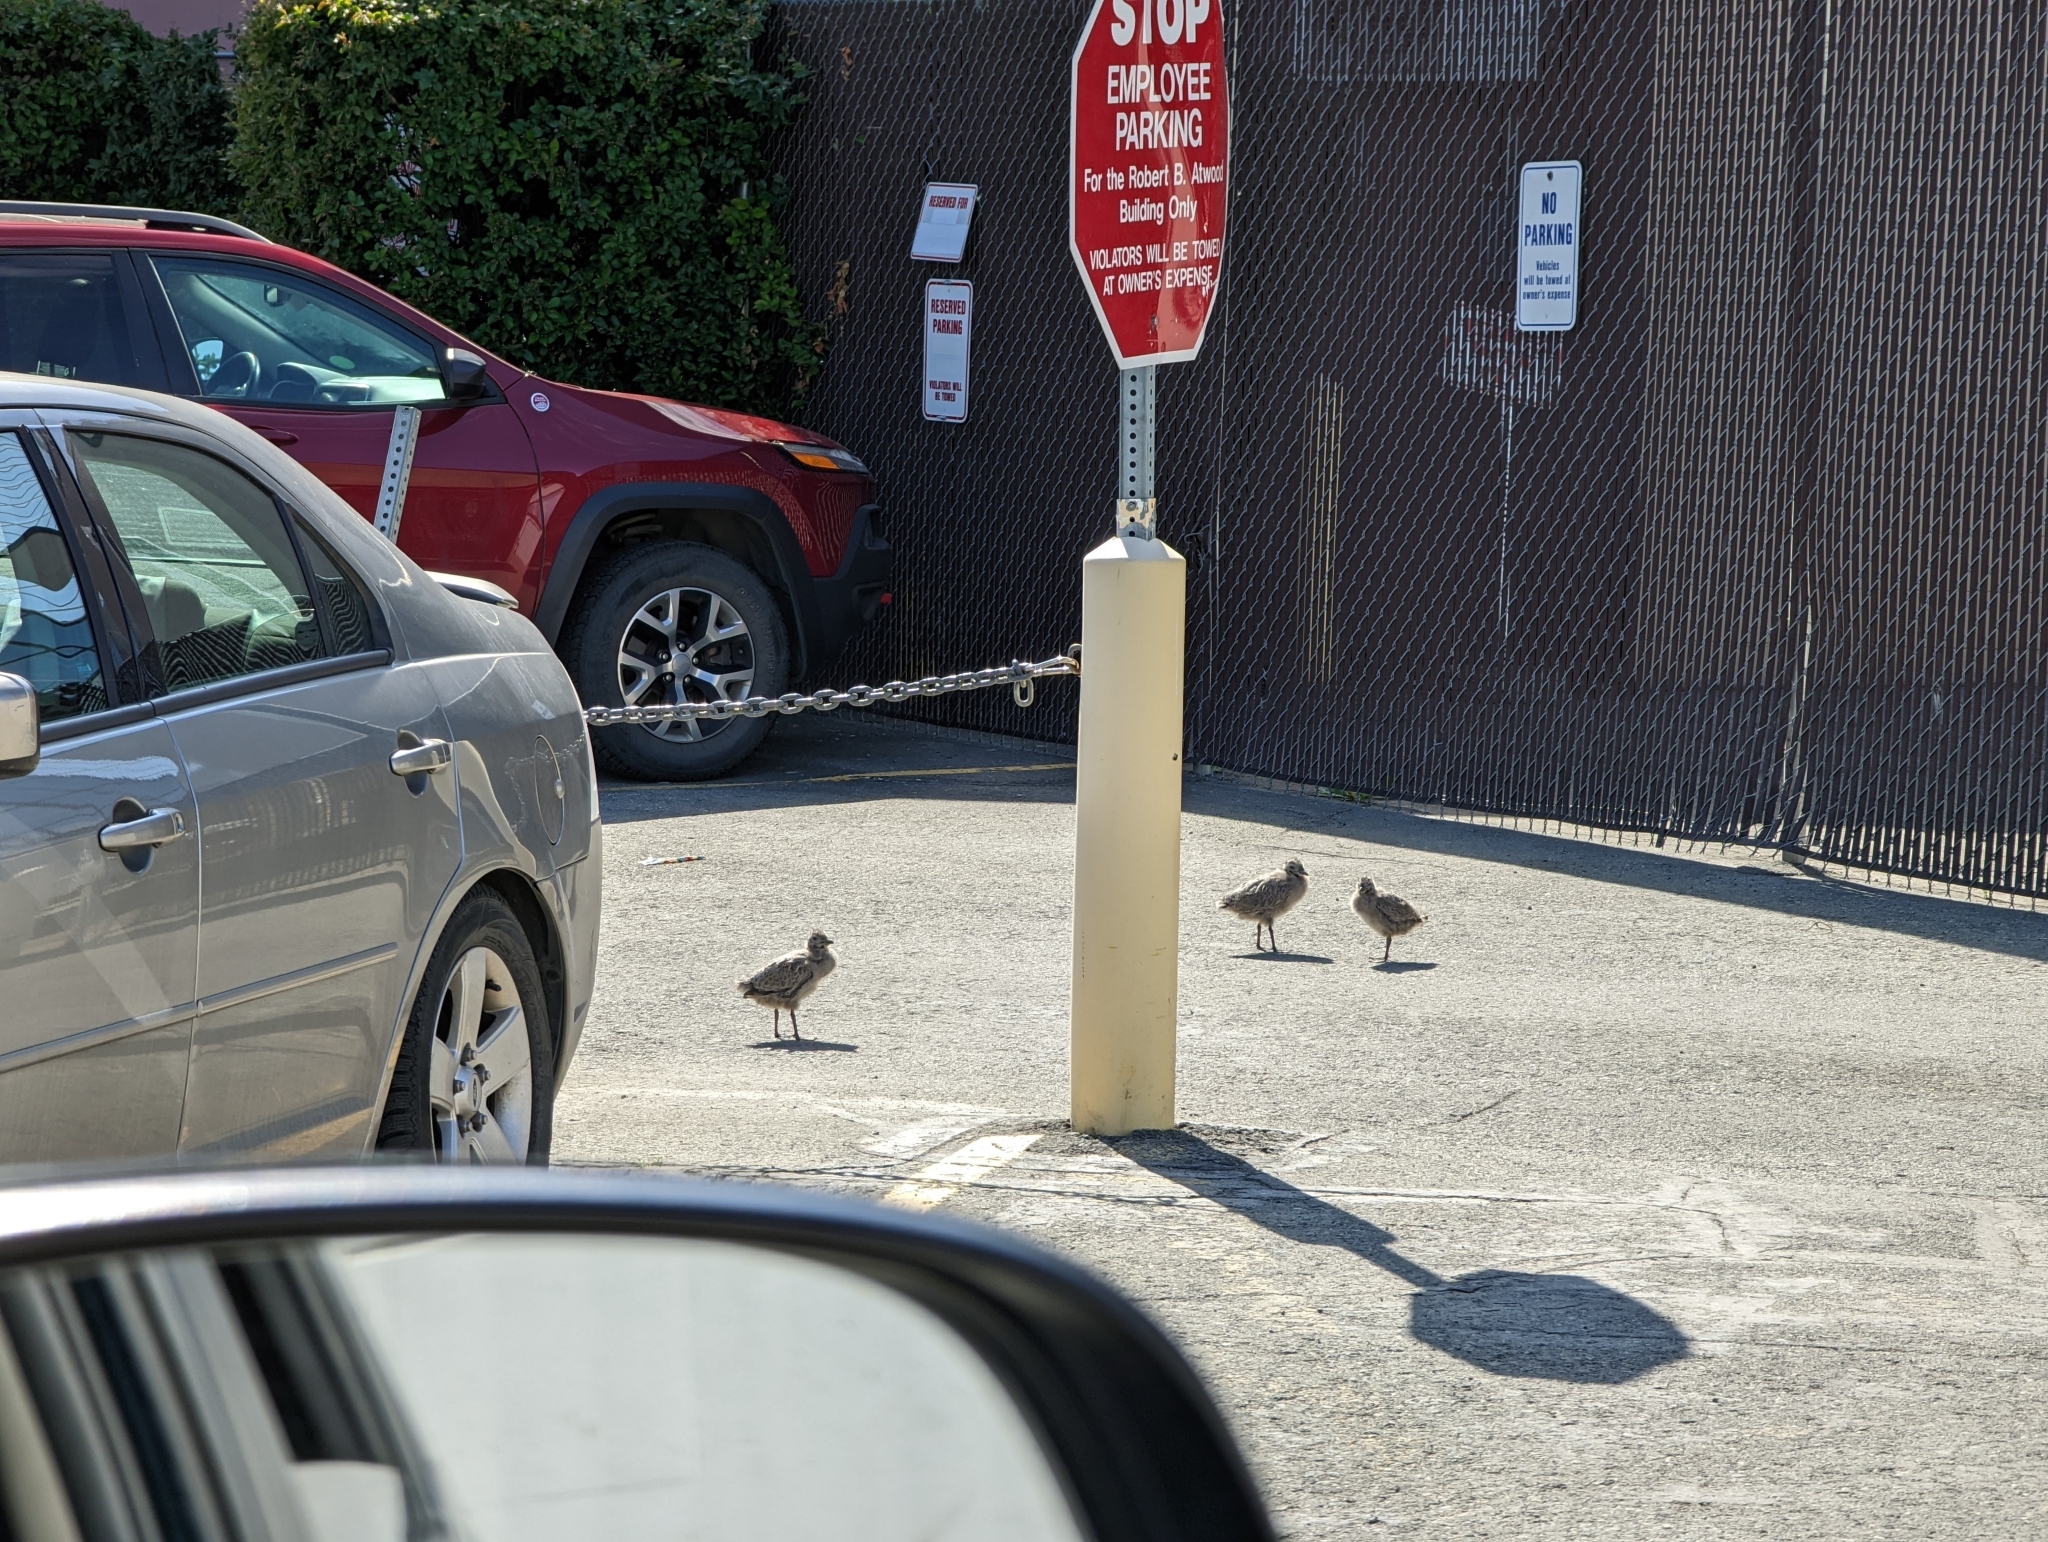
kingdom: Animalia
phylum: Chordata
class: Aves
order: Charadriiformes
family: Laridae
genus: Larus
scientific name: Larus brachyrhynchus
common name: Short-billed gull
